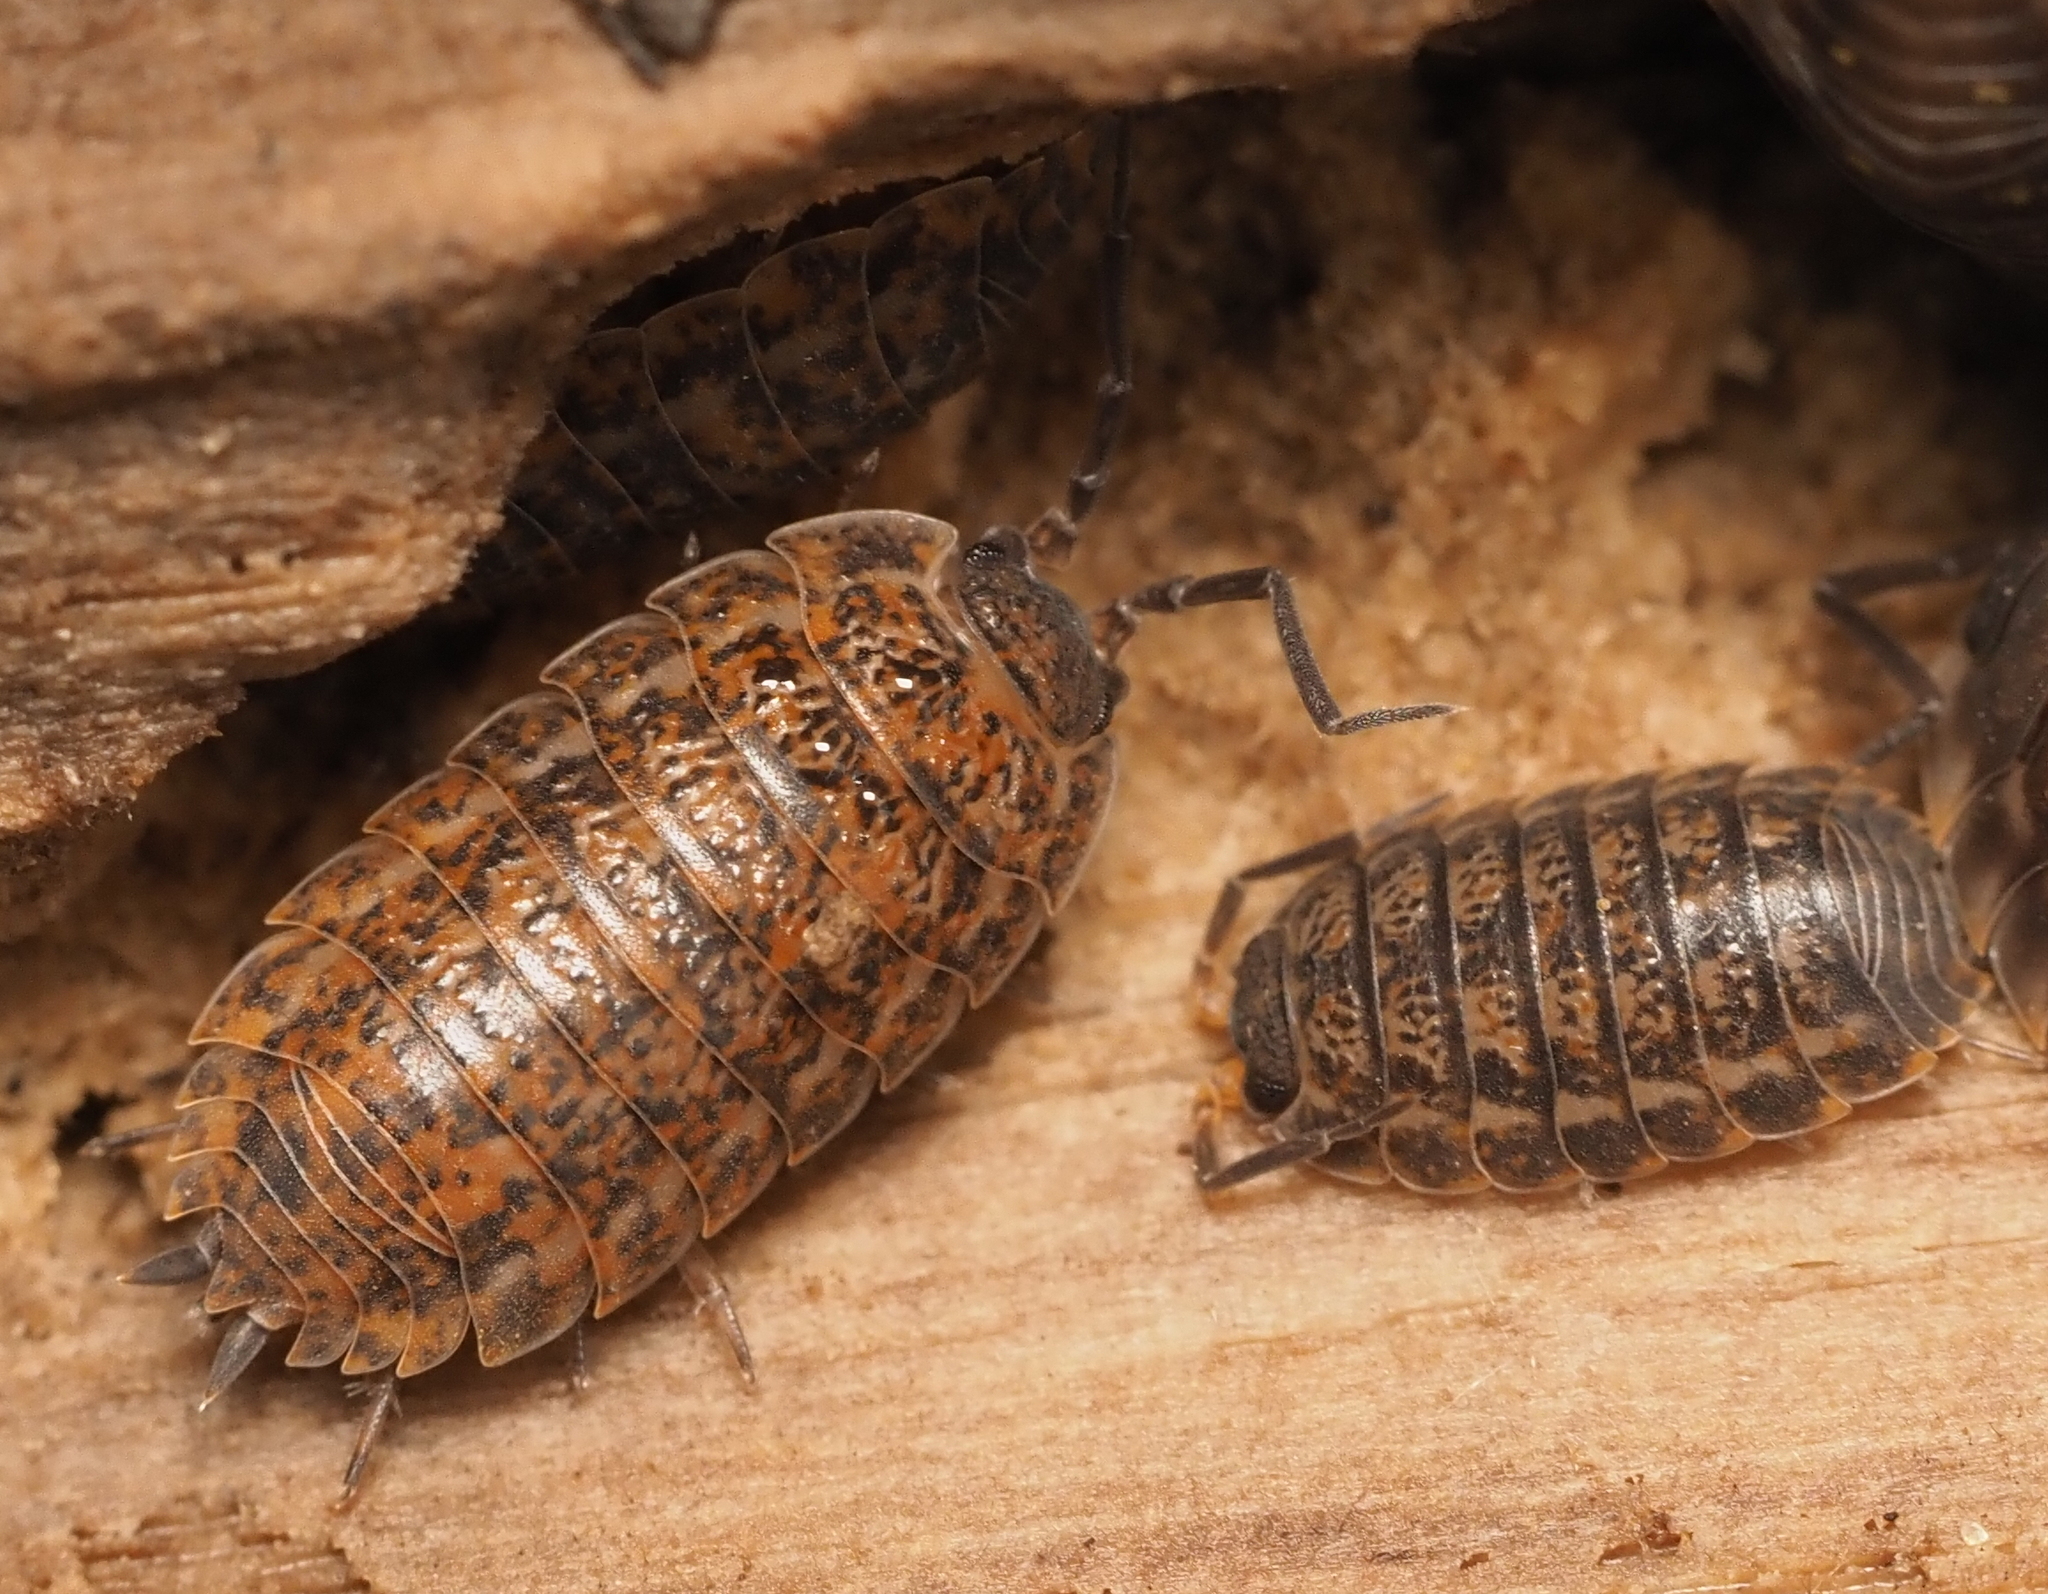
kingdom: Animalia
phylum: Arthropoda
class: Malacostraca
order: Isopoda
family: Trachelipodidae
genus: Trachelipus
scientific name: Trachelipus rathkii
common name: Isopod
